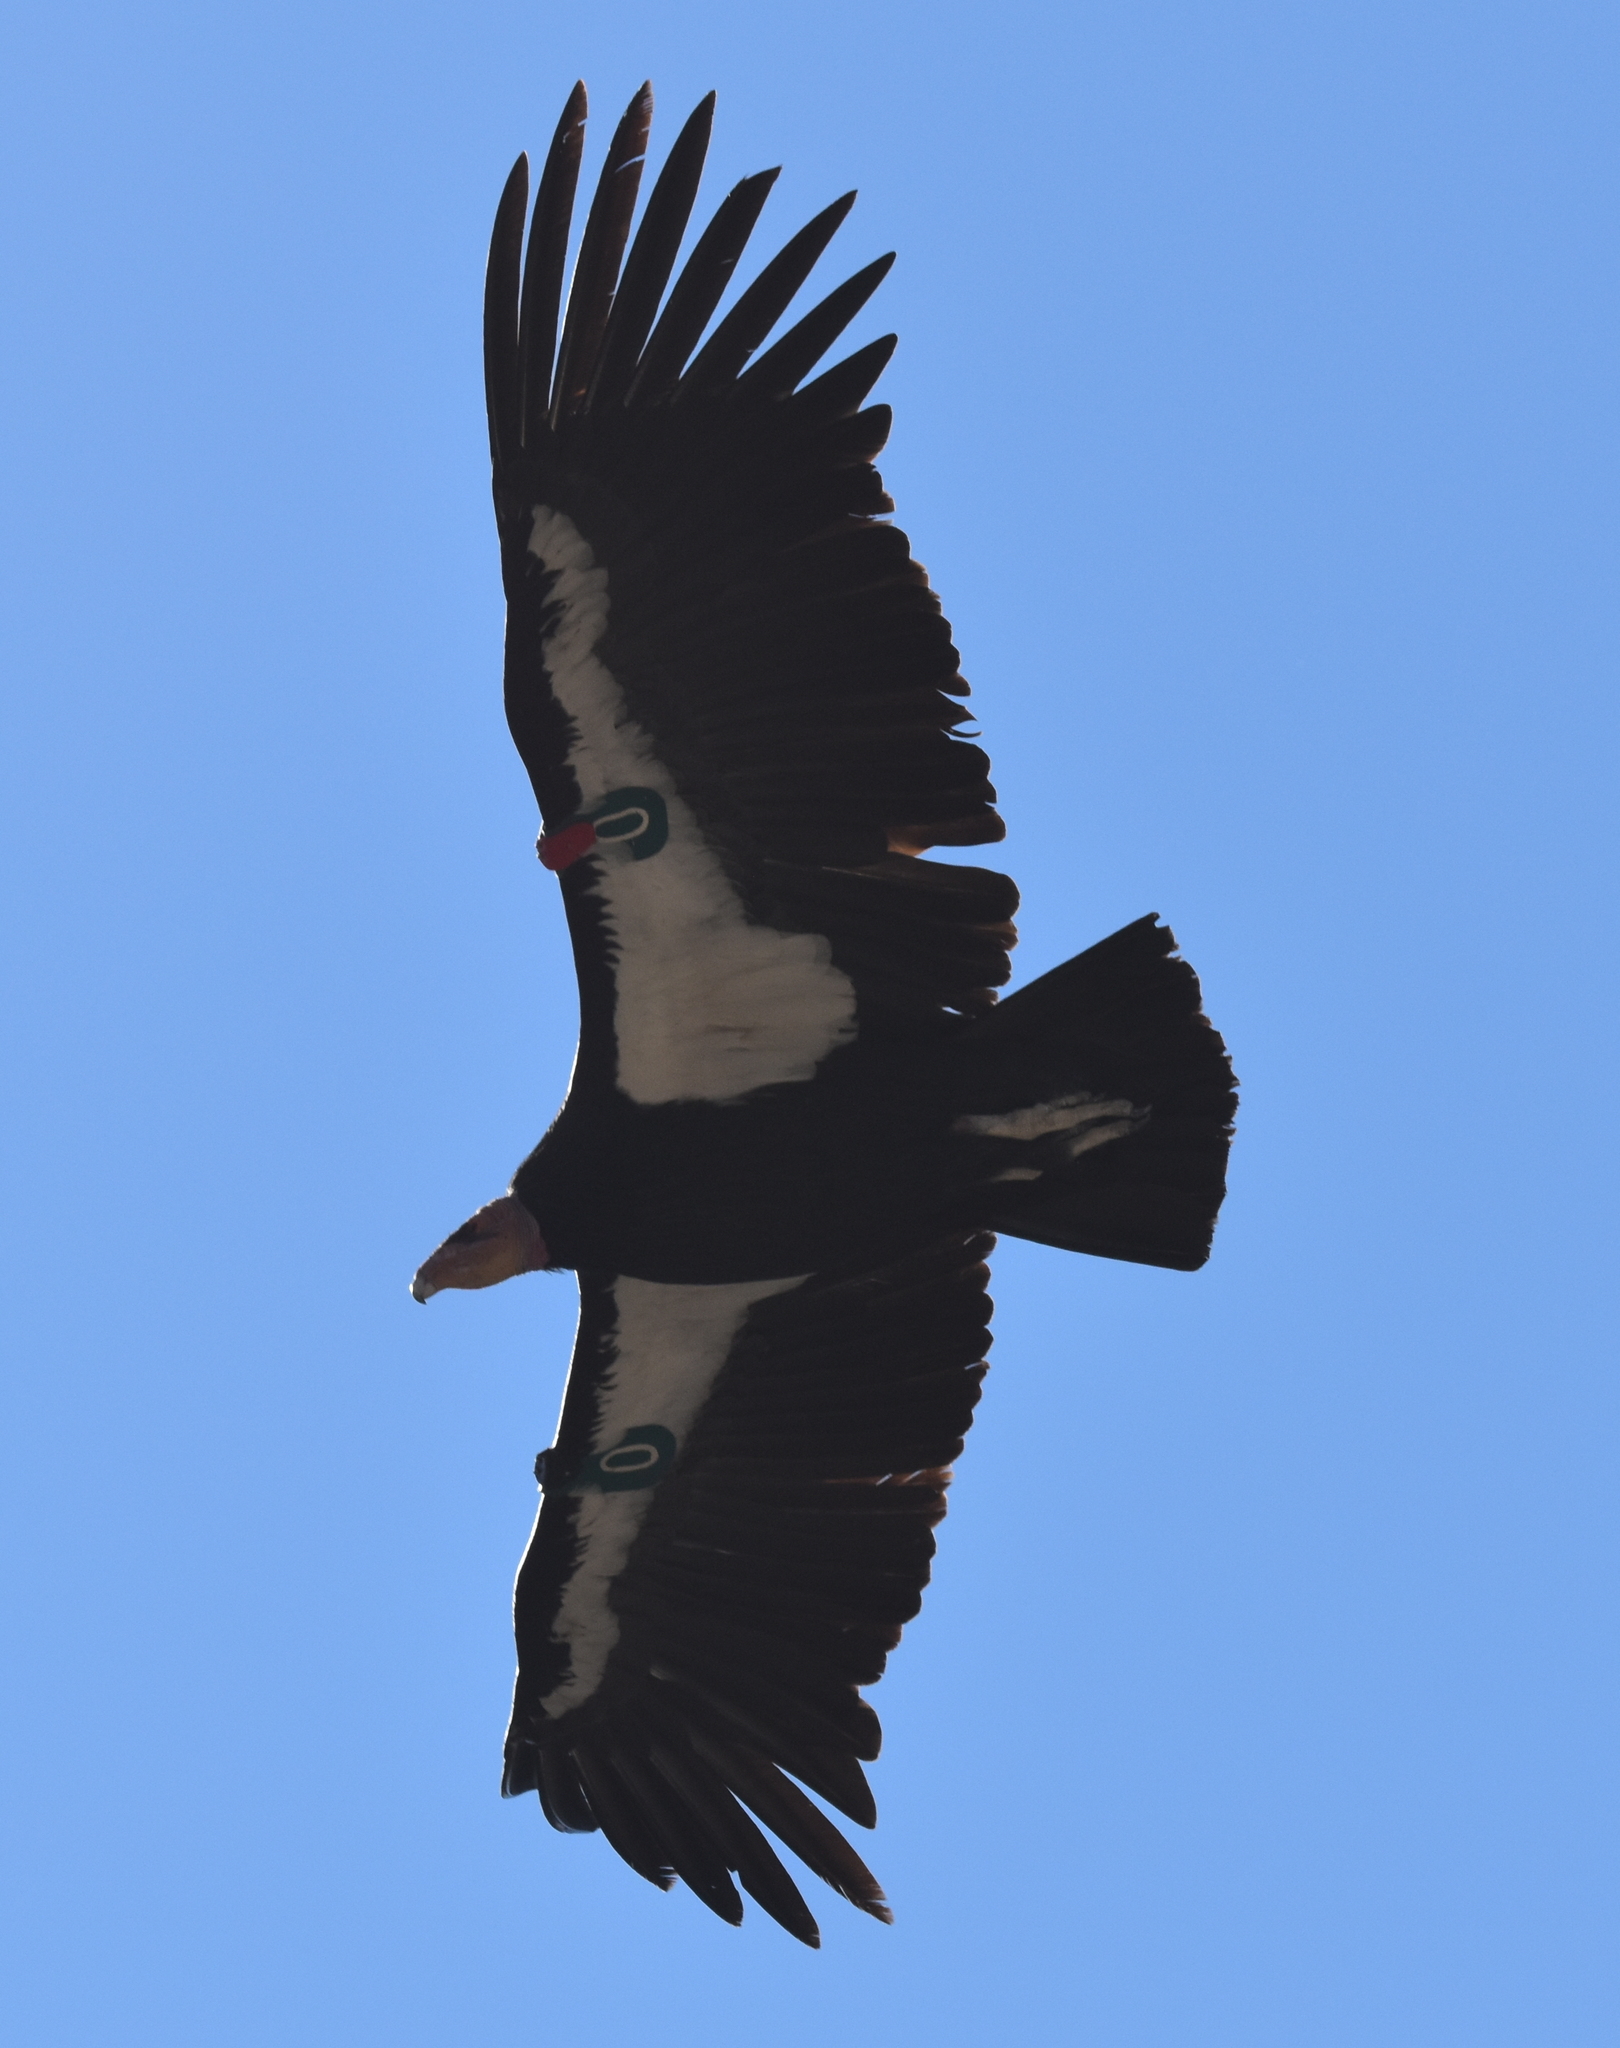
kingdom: Animalia
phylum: Chordata
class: Aves
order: Accipitriformes
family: Cathartidae
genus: Gymnogyps
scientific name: Gymnogyps californianus
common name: California condor
